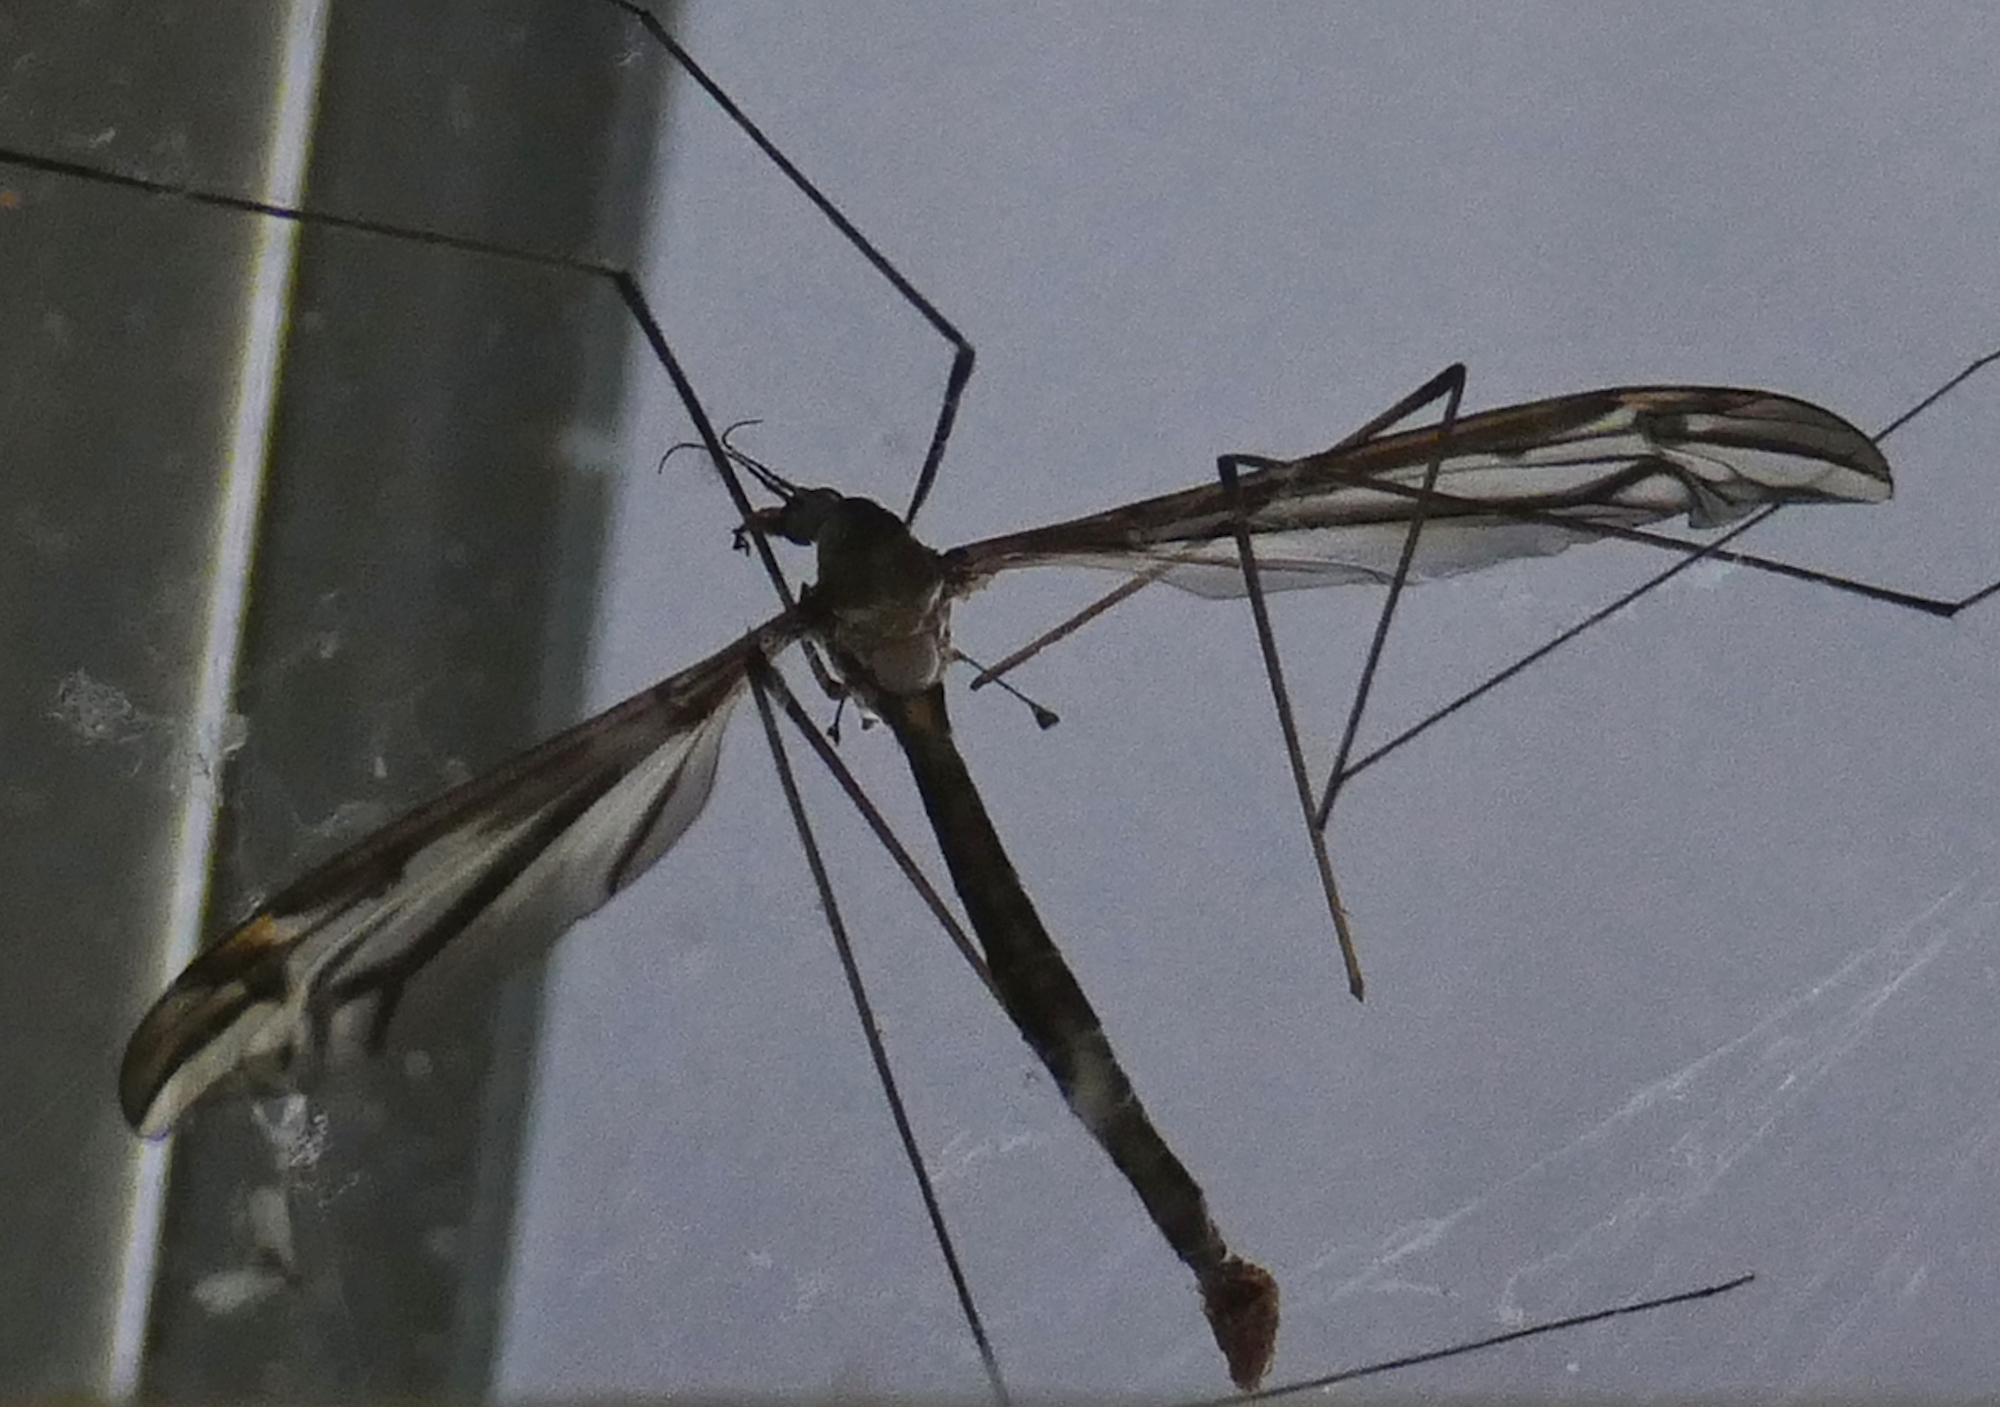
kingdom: Animalia
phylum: Arthropoda
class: Insecta
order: Diptera
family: Tipulidae
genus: Tipula
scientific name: Tipula furca
